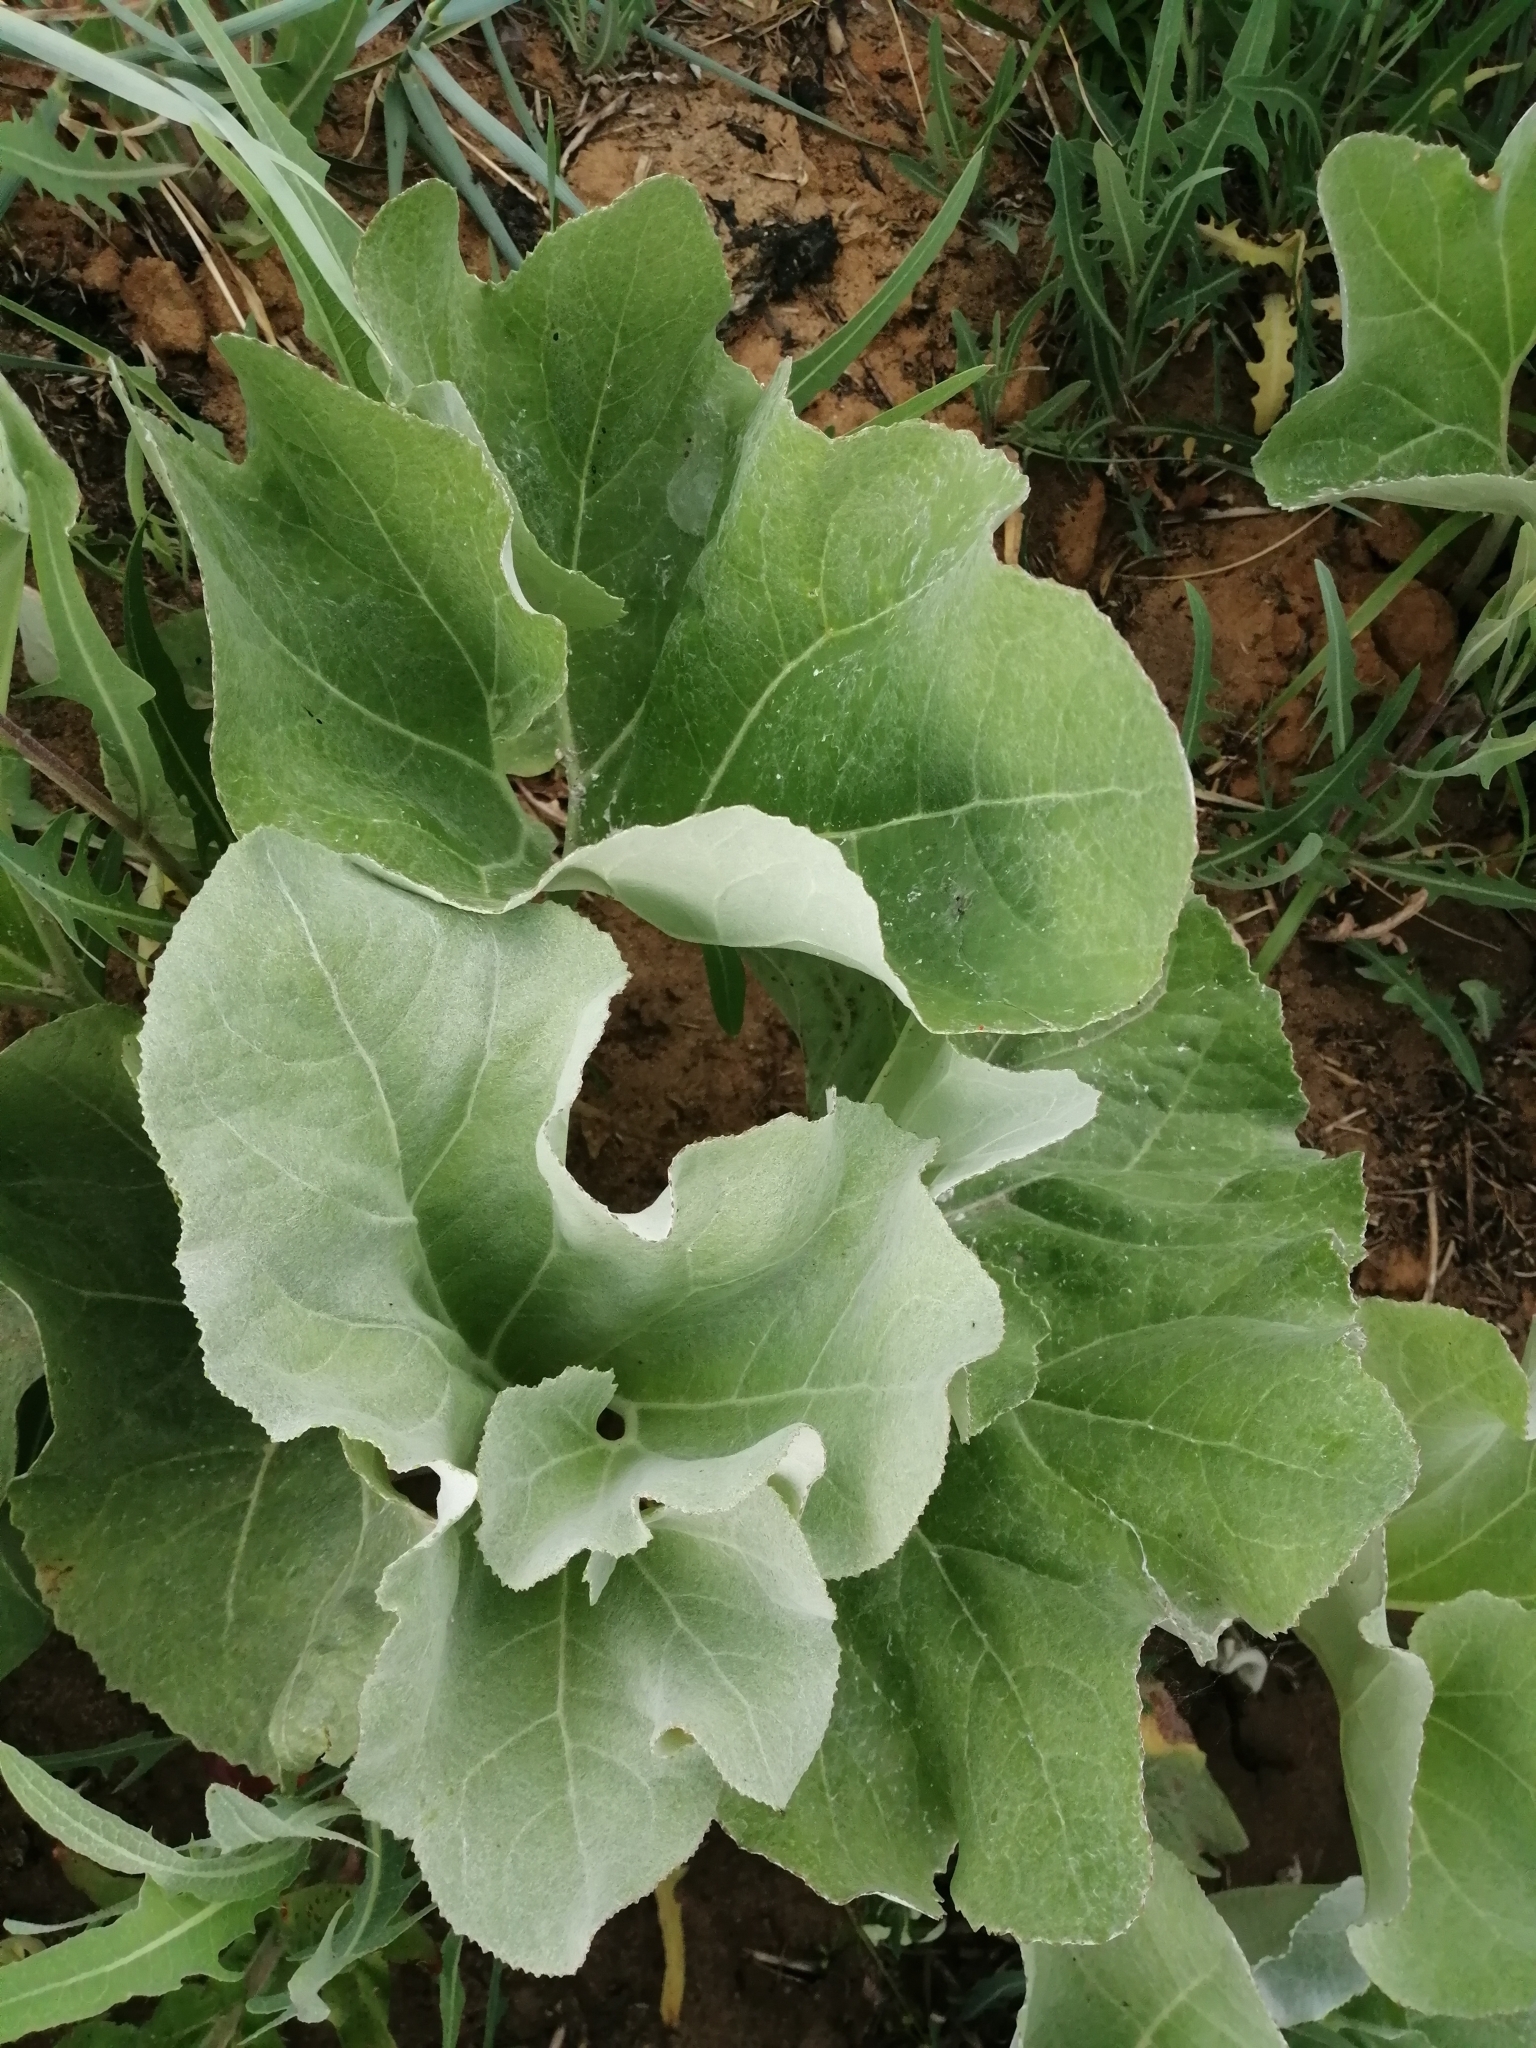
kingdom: Plantae
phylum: Tracheophyta
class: Magnoliopsida
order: Asterales
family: Asteraceae
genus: Petasites
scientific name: Petasites spurius
